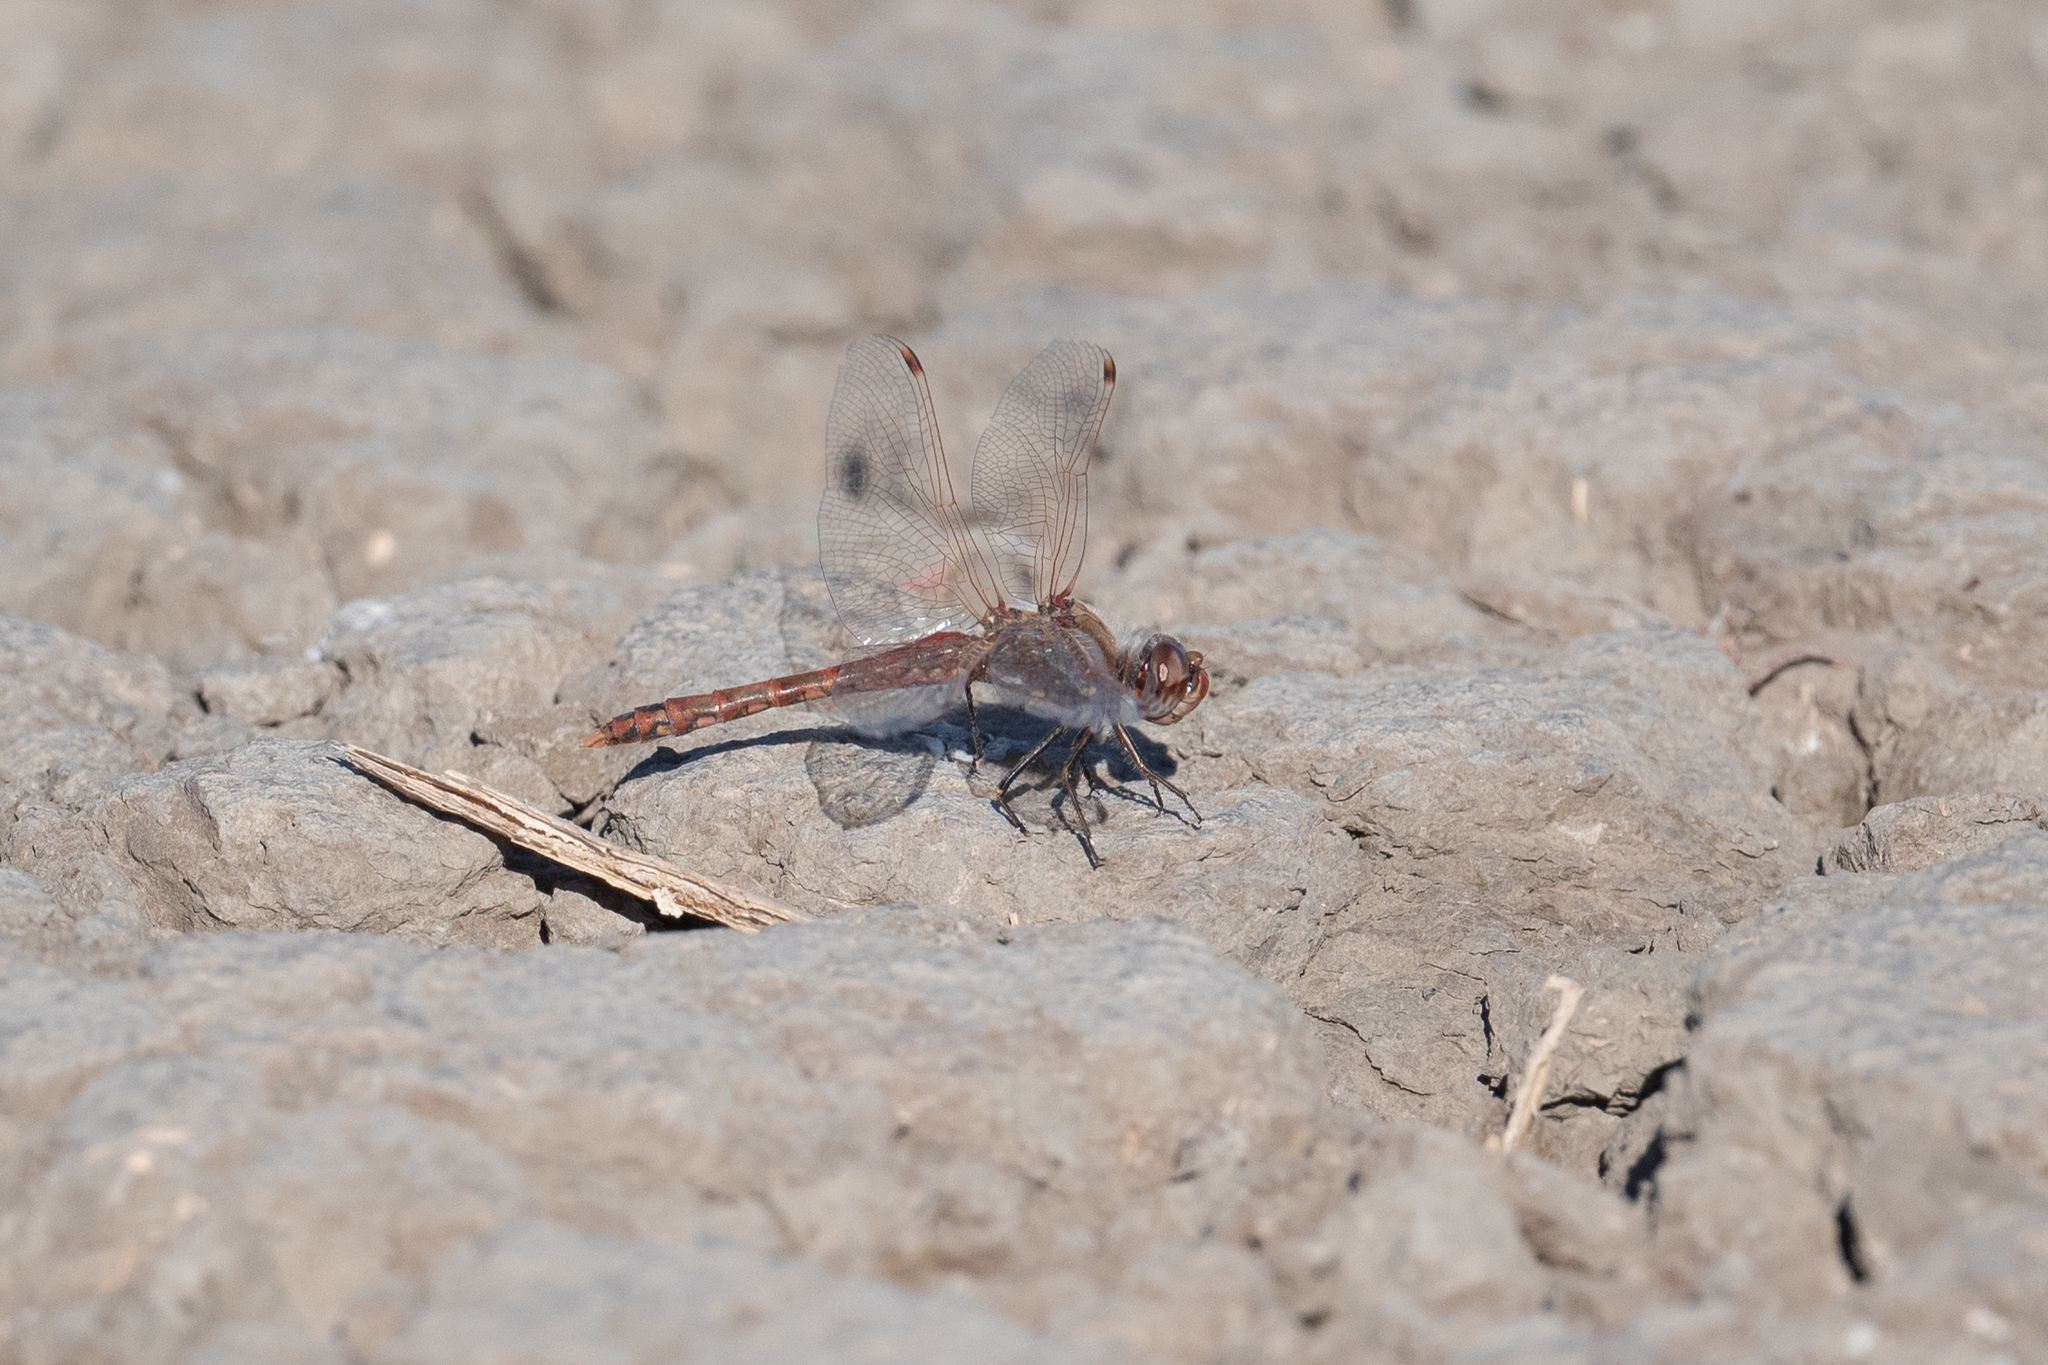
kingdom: Animalia
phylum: Arthropoda
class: Insecta
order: Odonata
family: Libellulidae
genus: Sympetrum
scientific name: Sympetrum corruptum
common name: Variegated meadowhawk
